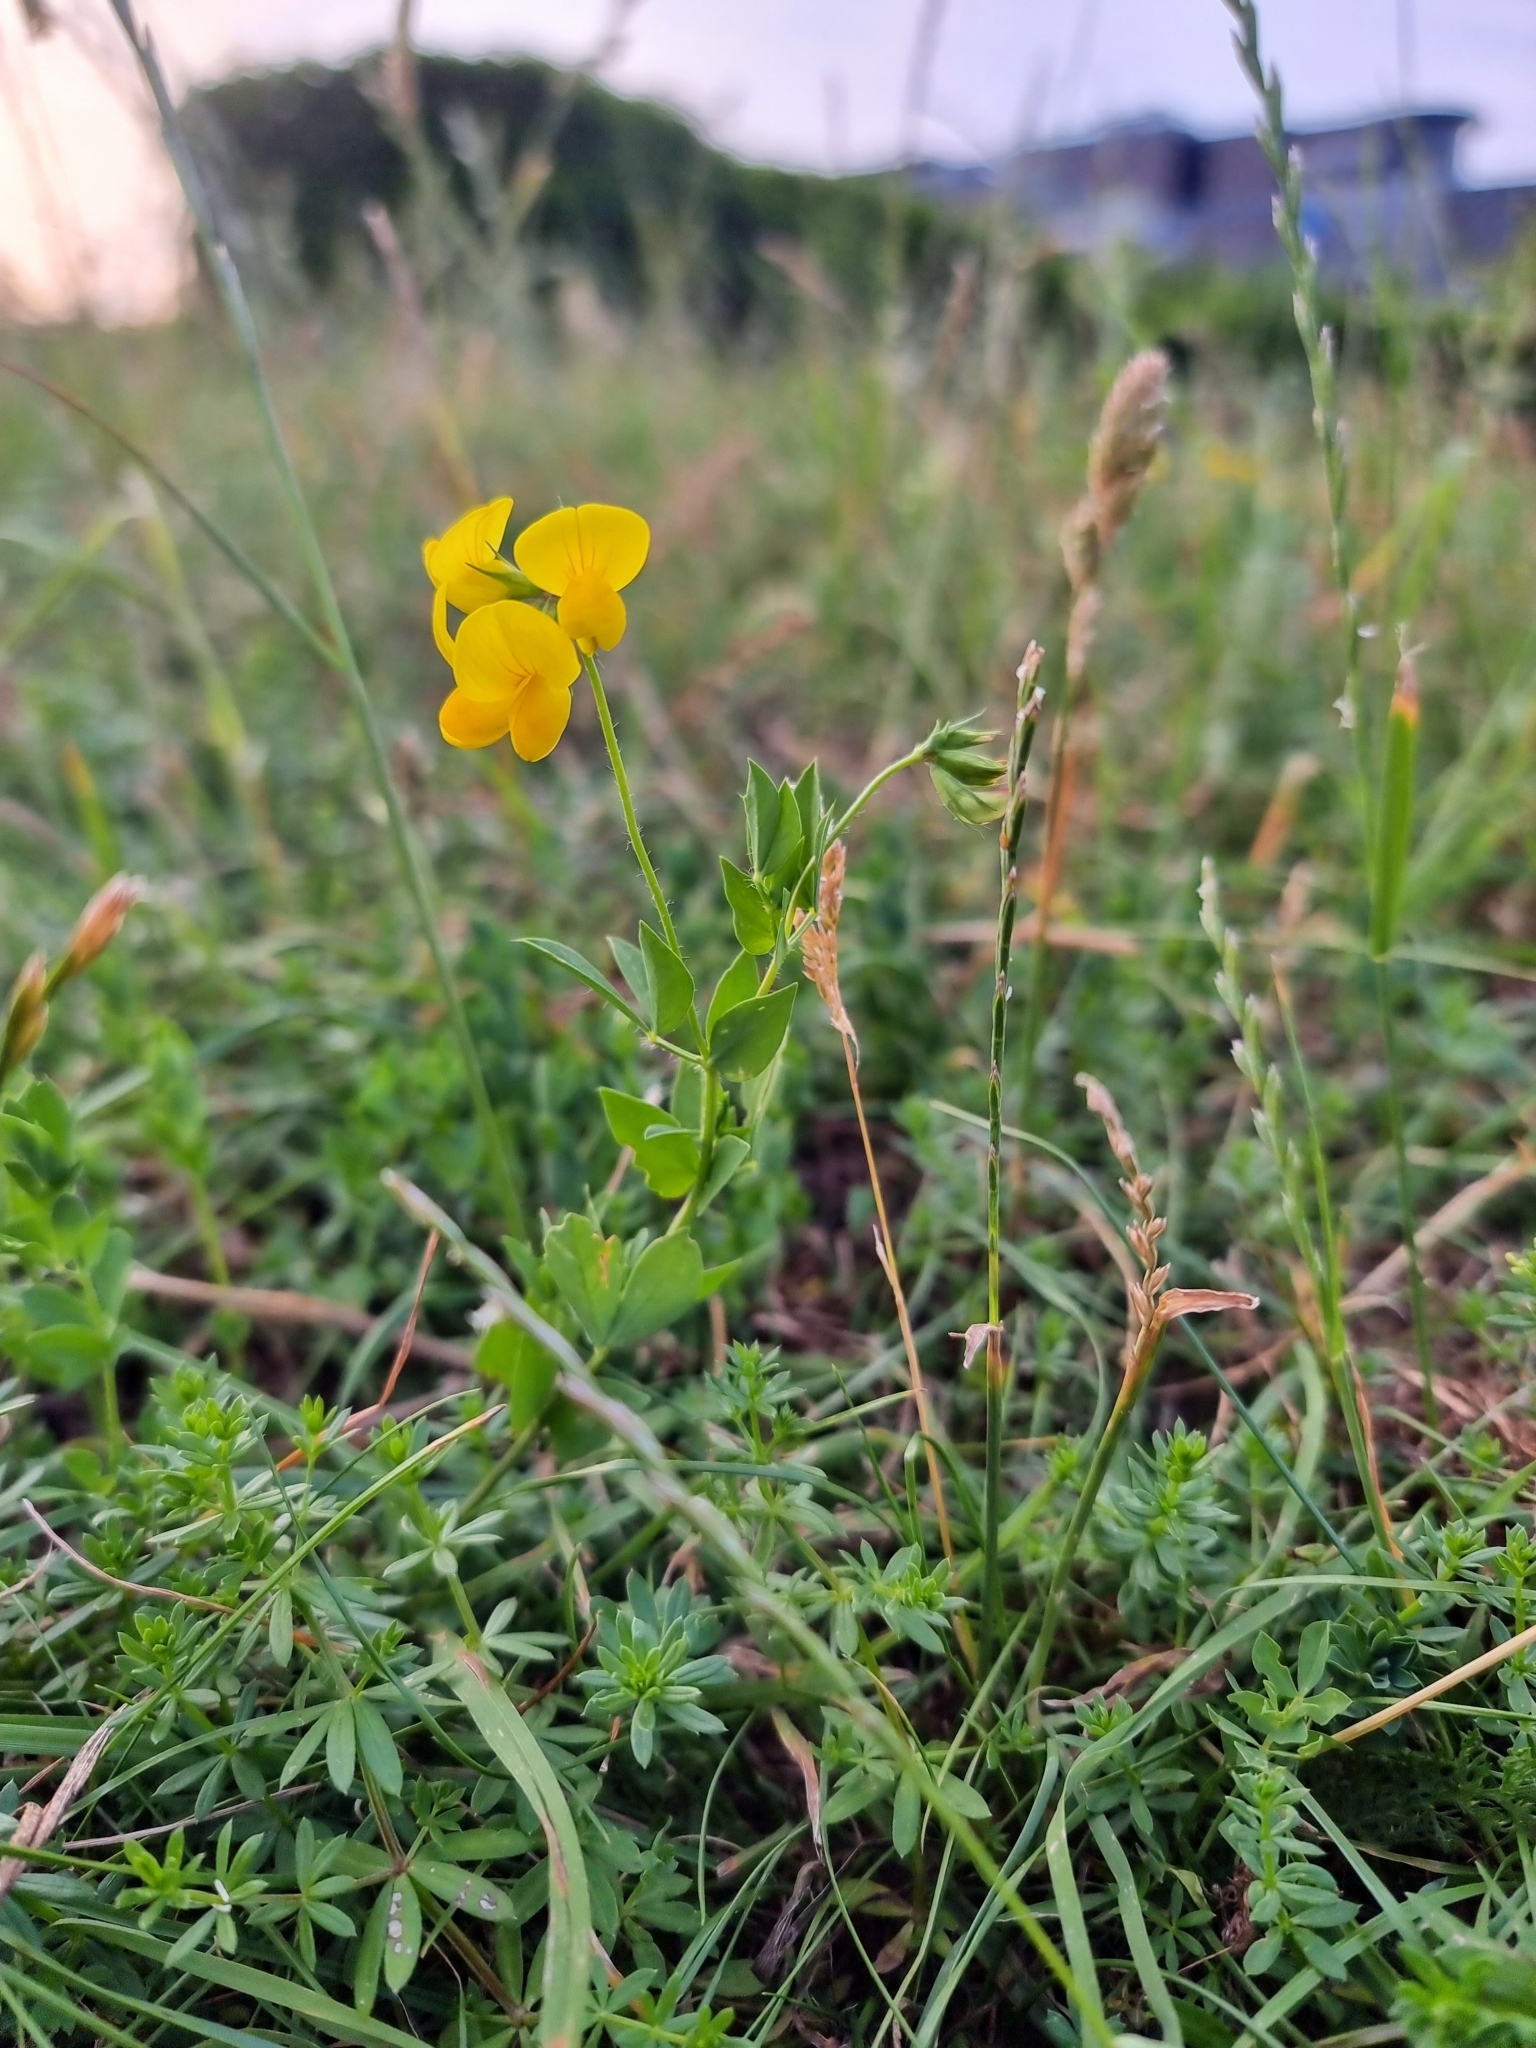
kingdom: Plantae
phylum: Tracheophyta
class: Magnoliopsida
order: Fabales
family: Fabaceae
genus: Lotus
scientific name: Lotus corniculatus
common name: Common bird's-foot-trefoil
